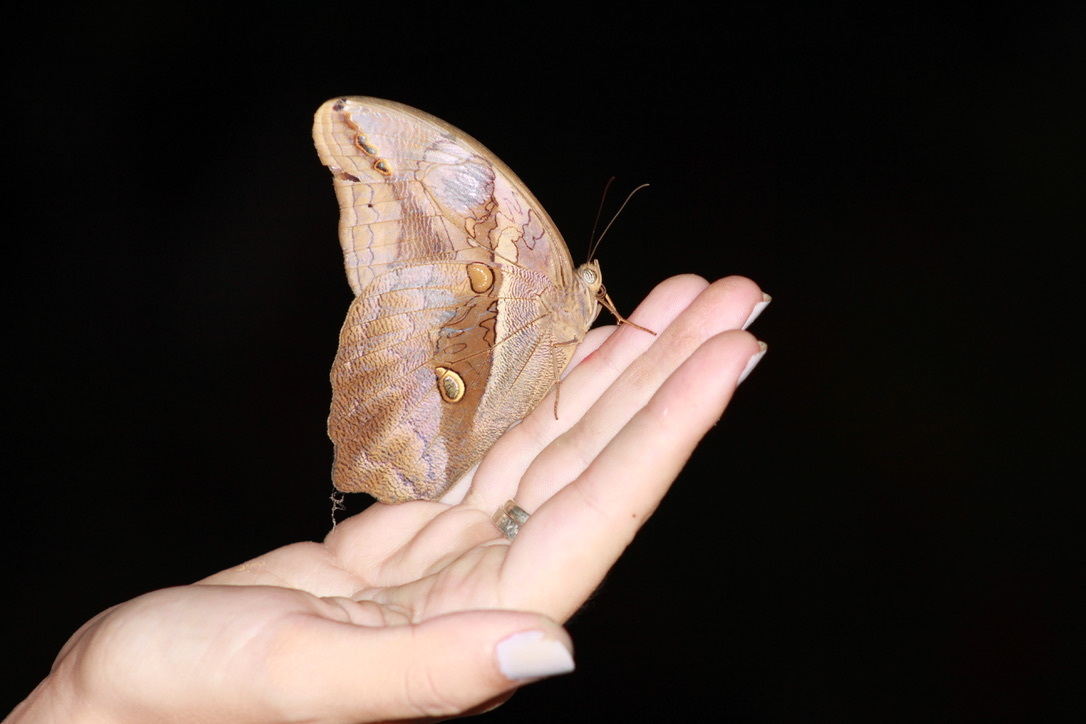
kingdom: Animalia
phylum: Arthropoda
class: Insecta
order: Lepidoptera
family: Nymphalidae
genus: Eryphanis
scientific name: Eryphanis polyxena
